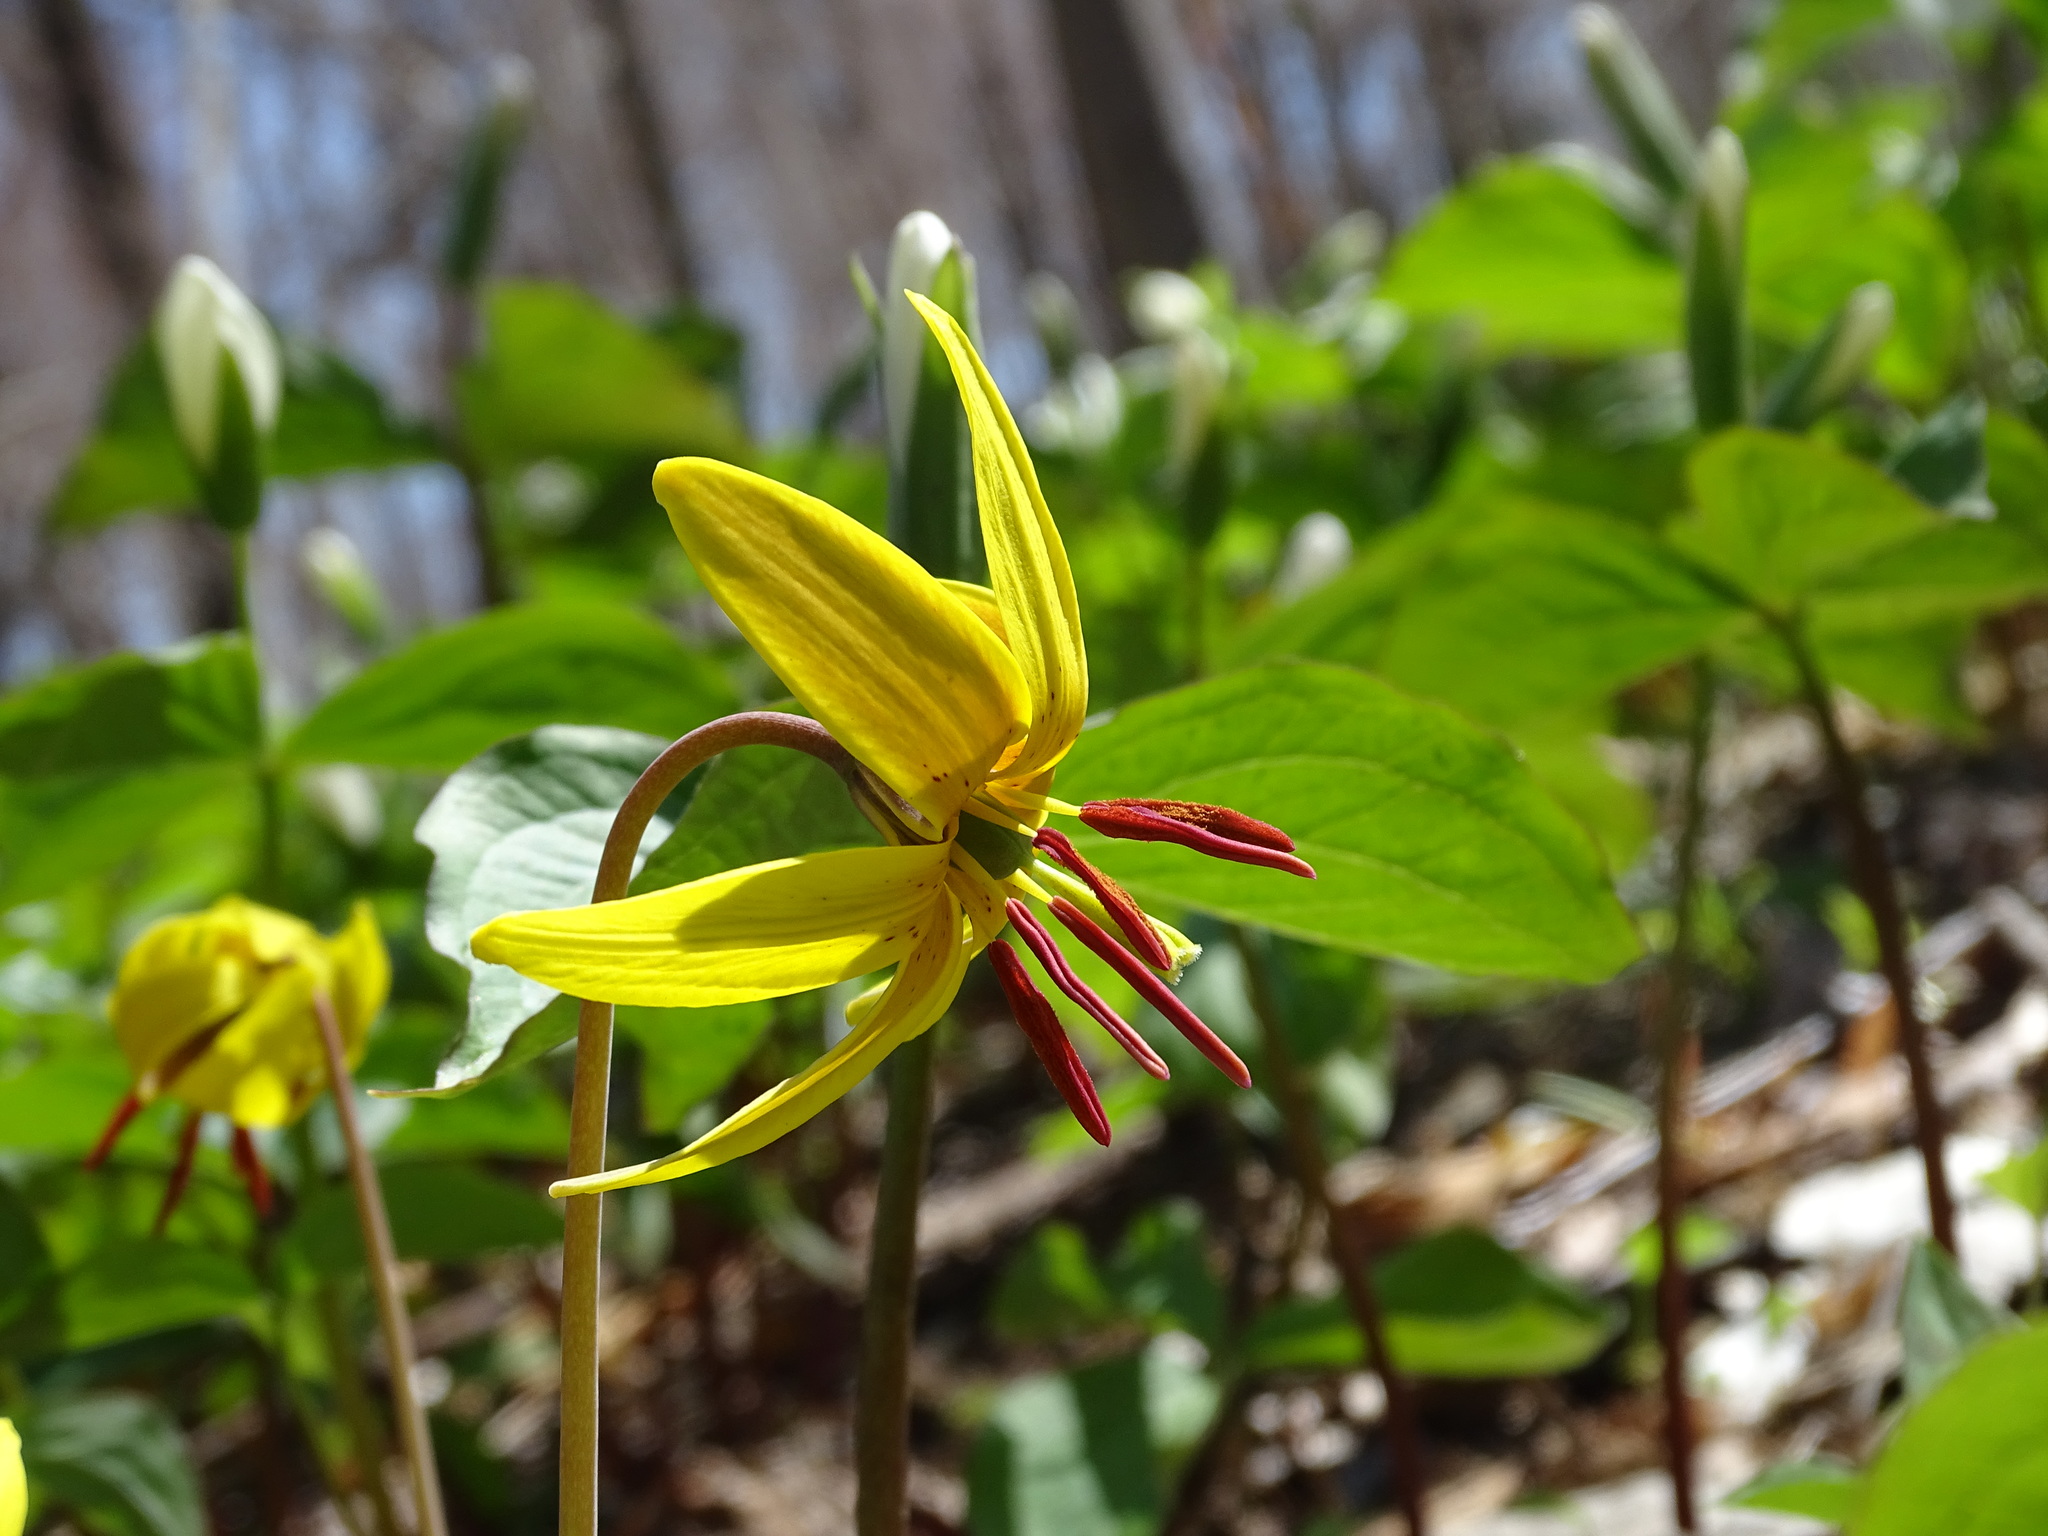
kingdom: Plantae
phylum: Tracheophyta
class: Liliopsida
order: Liliales
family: Liliaceae
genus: Erythronium
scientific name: Erythronium americanum
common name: Yellow adder's-tongue
